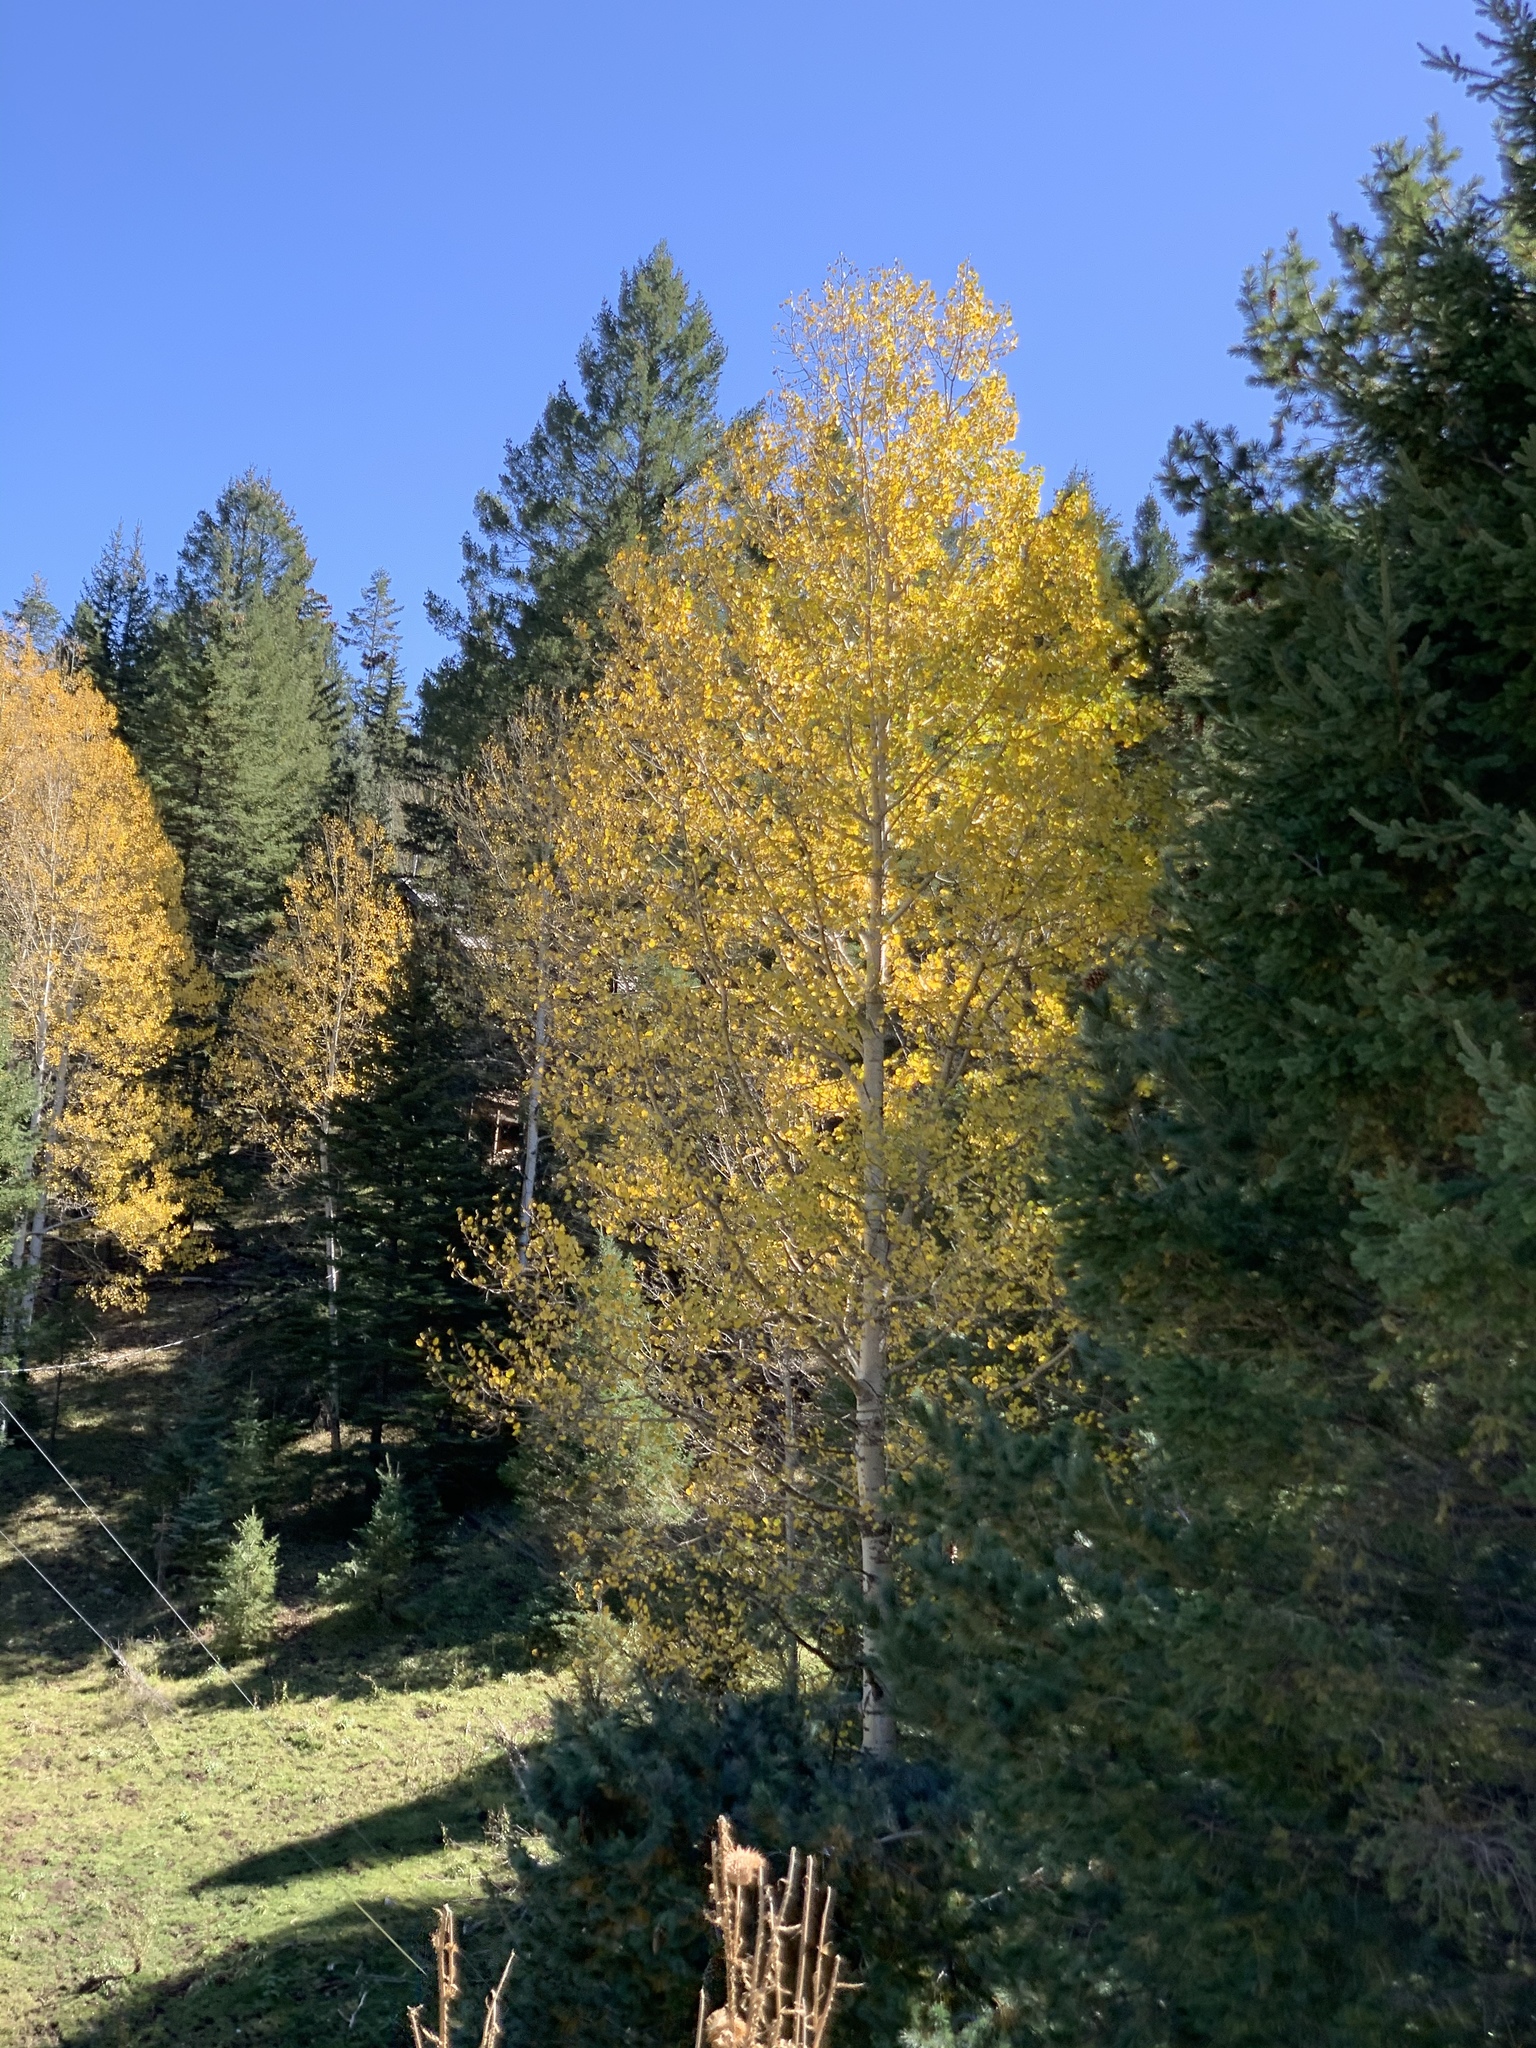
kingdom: Plantae
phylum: Tracheophyta
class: Magnoliopsida
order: Malpighiales
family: Salicaceae
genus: Populus
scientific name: Populus tremuloides
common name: Quaking aspen
